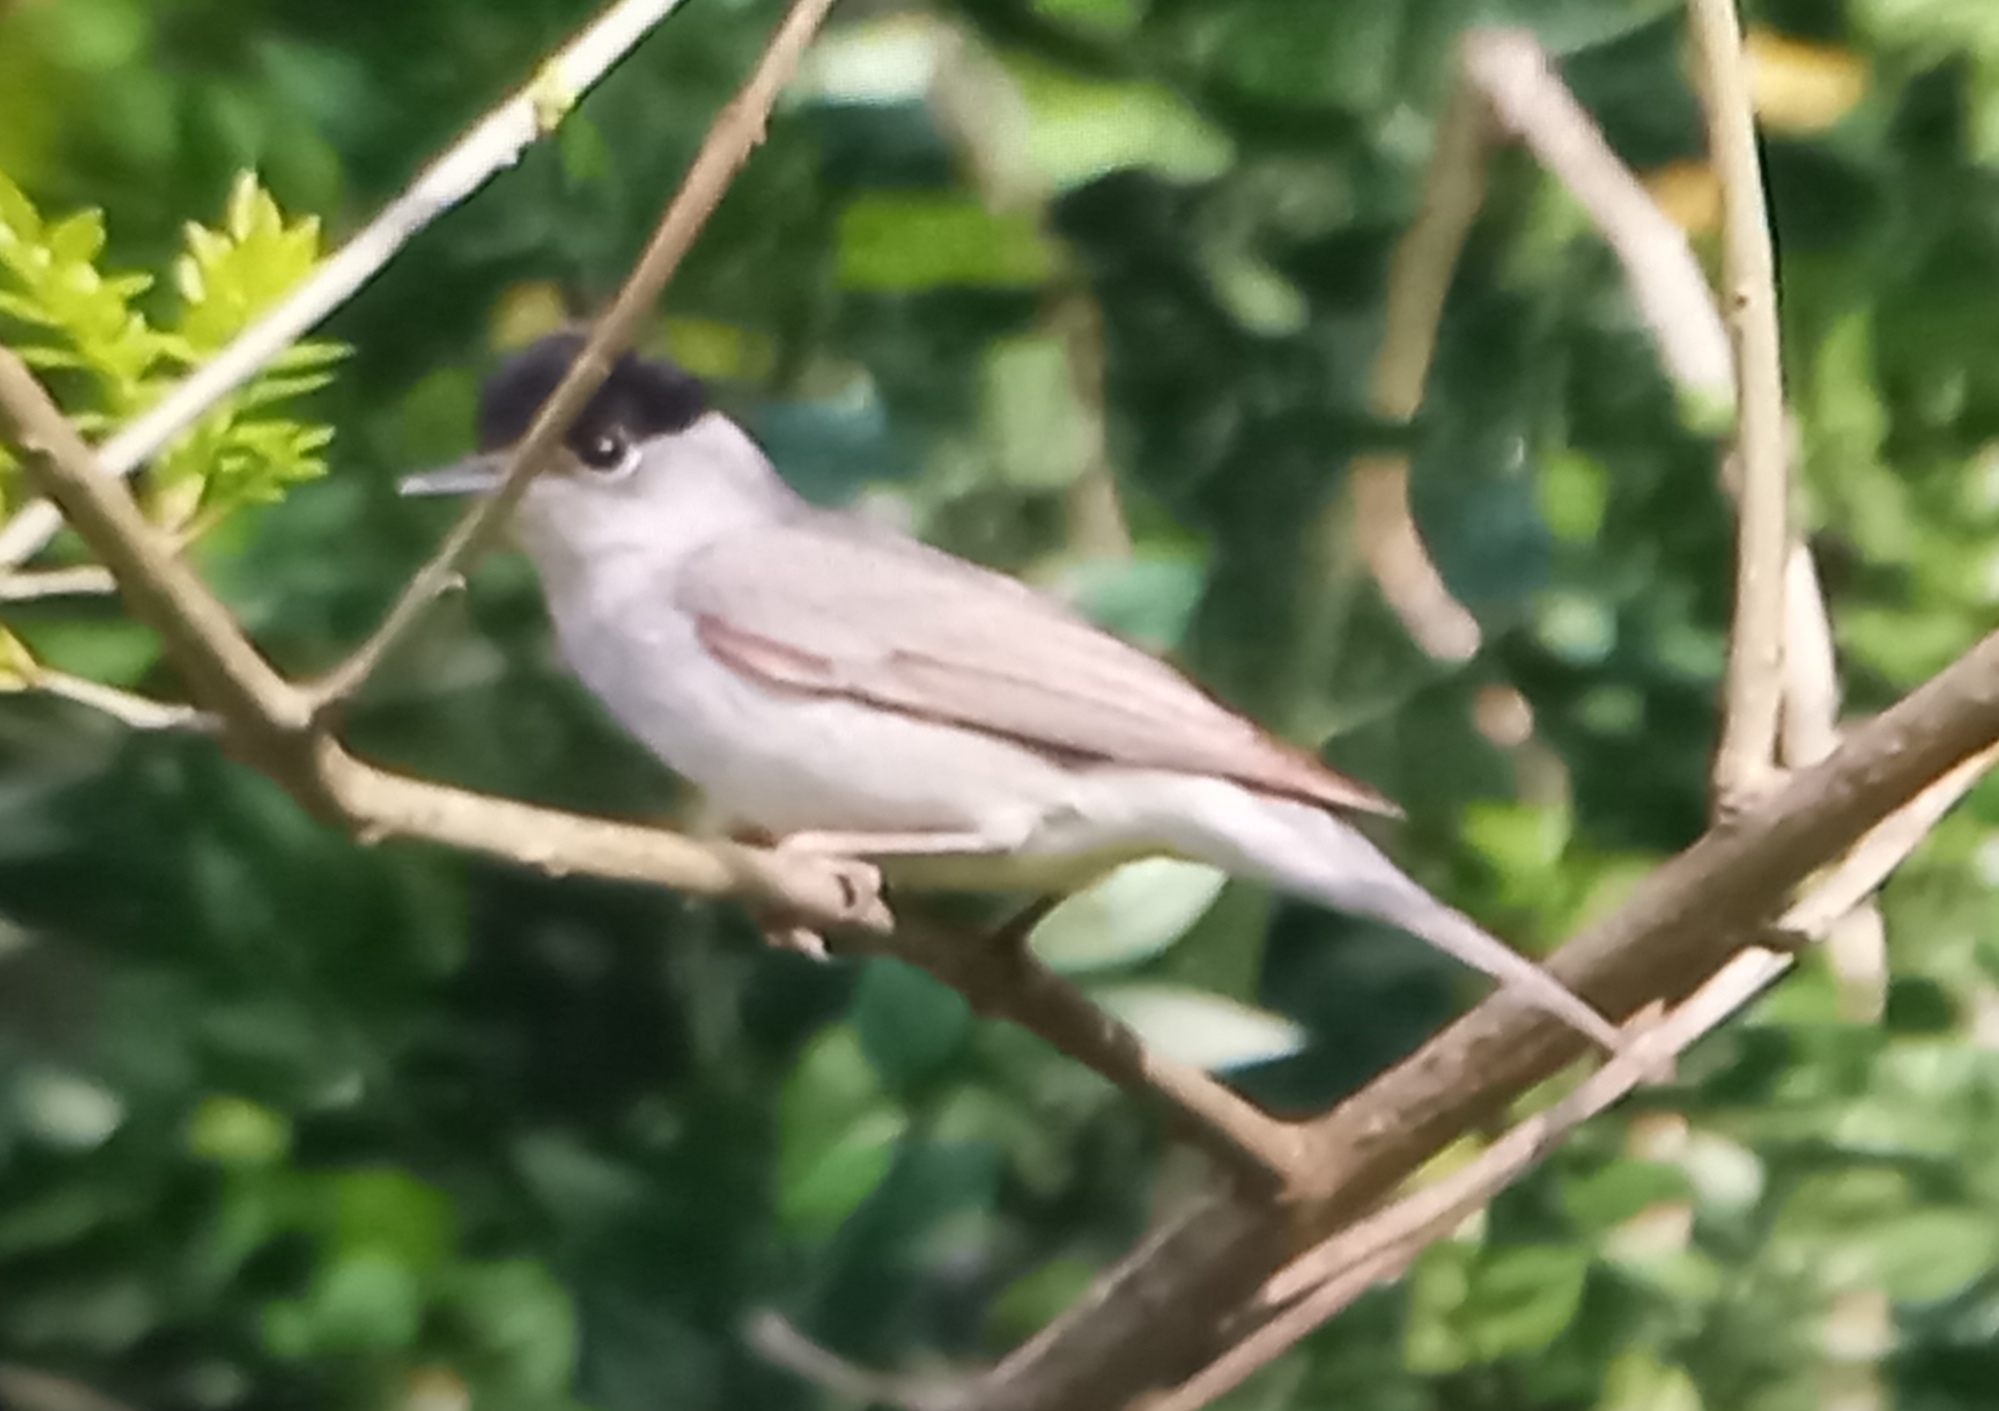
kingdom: Animalia
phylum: Chordata
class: Aves
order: Passeriformes
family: Sylviidae
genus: Sylvia
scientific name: Sylvia atricapilla
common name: Eurasian blackcap
